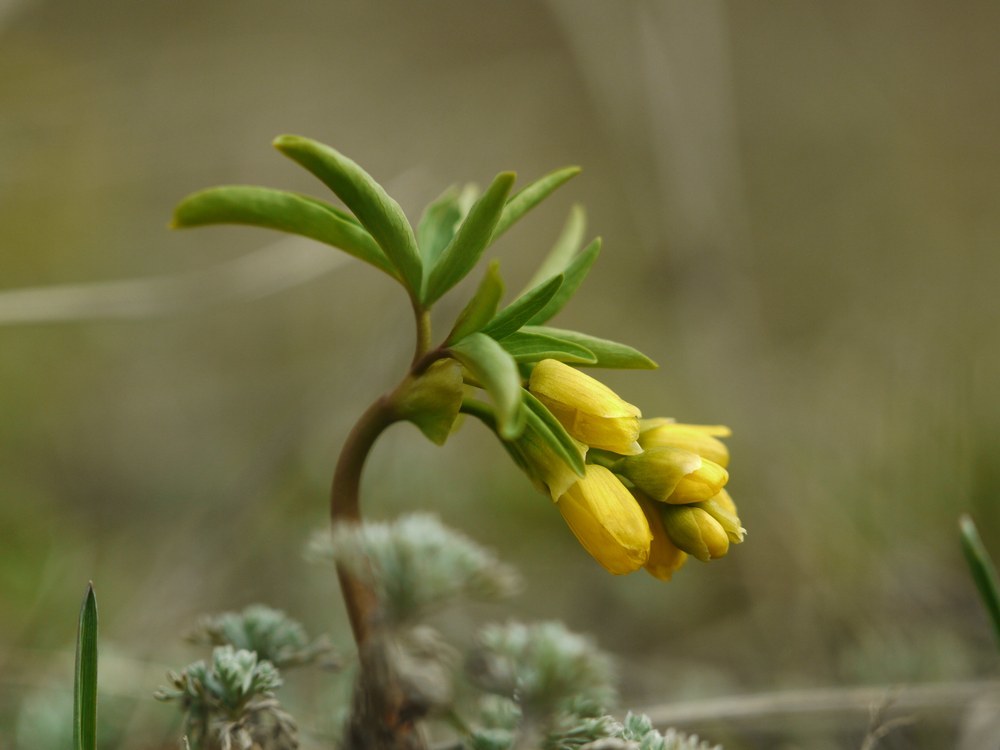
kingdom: Plantae
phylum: Tracheophyta
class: Magnoliopsida
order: Ranunculales
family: Berberidaceae
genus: Gymnospermium
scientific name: Gymnospermium odessanum
